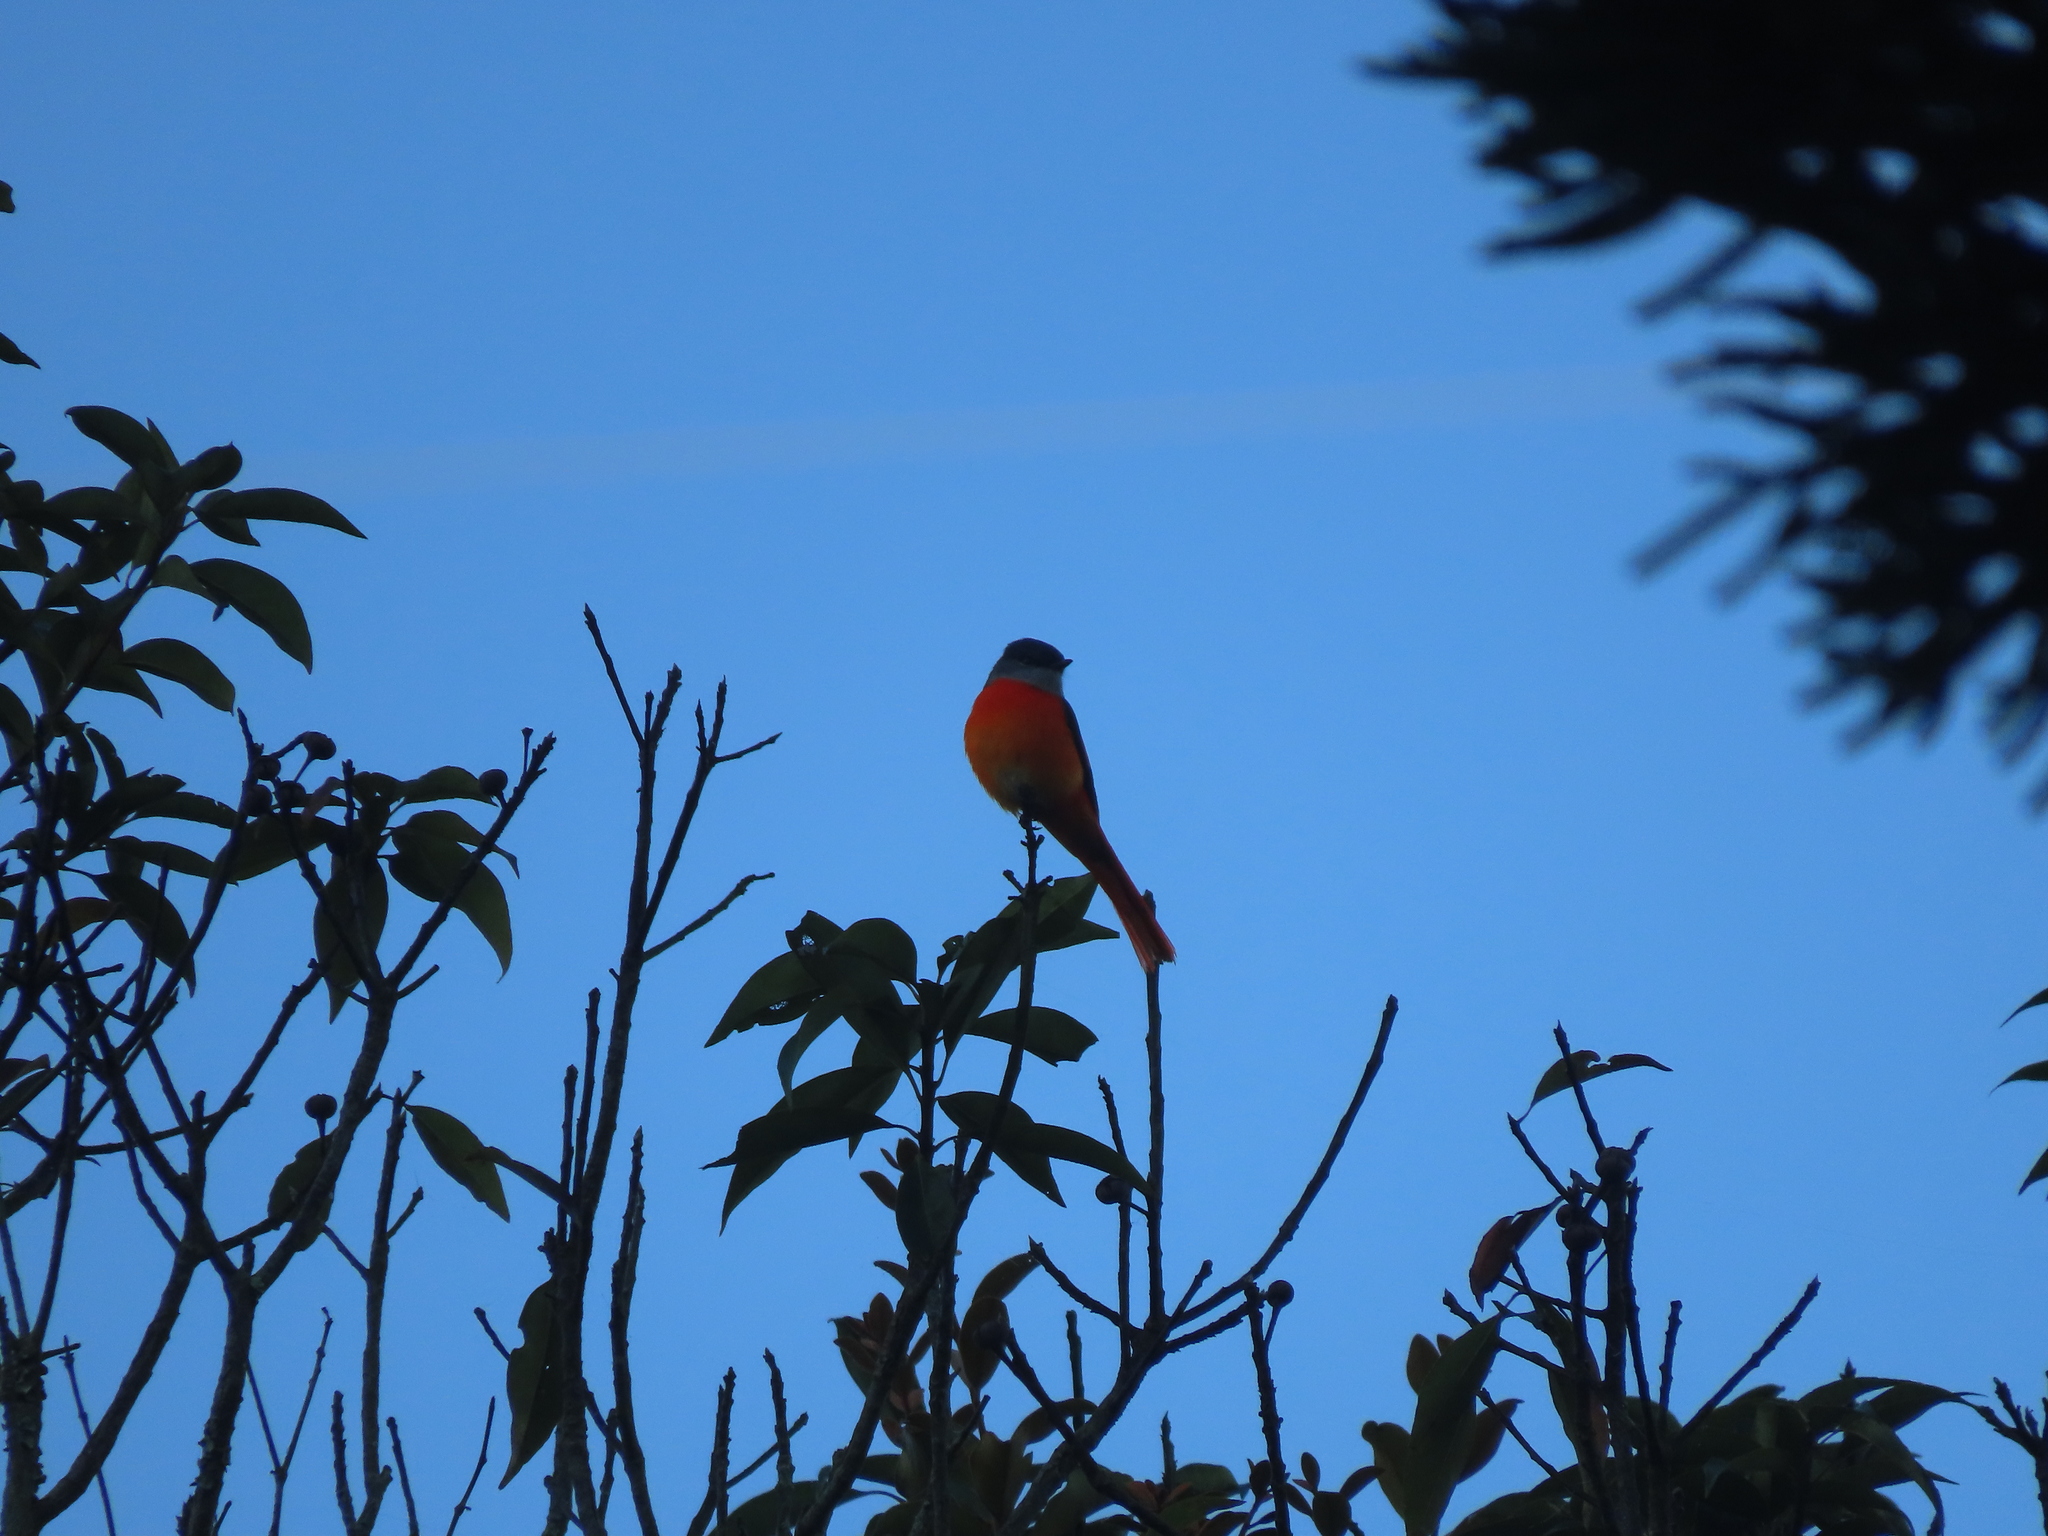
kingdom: Animalia
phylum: Chordata
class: Aves
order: Passeriformes
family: Campephagidae
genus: Pericrocotus
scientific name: Pericrocotus solaris
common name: Grey-chinned minivet
